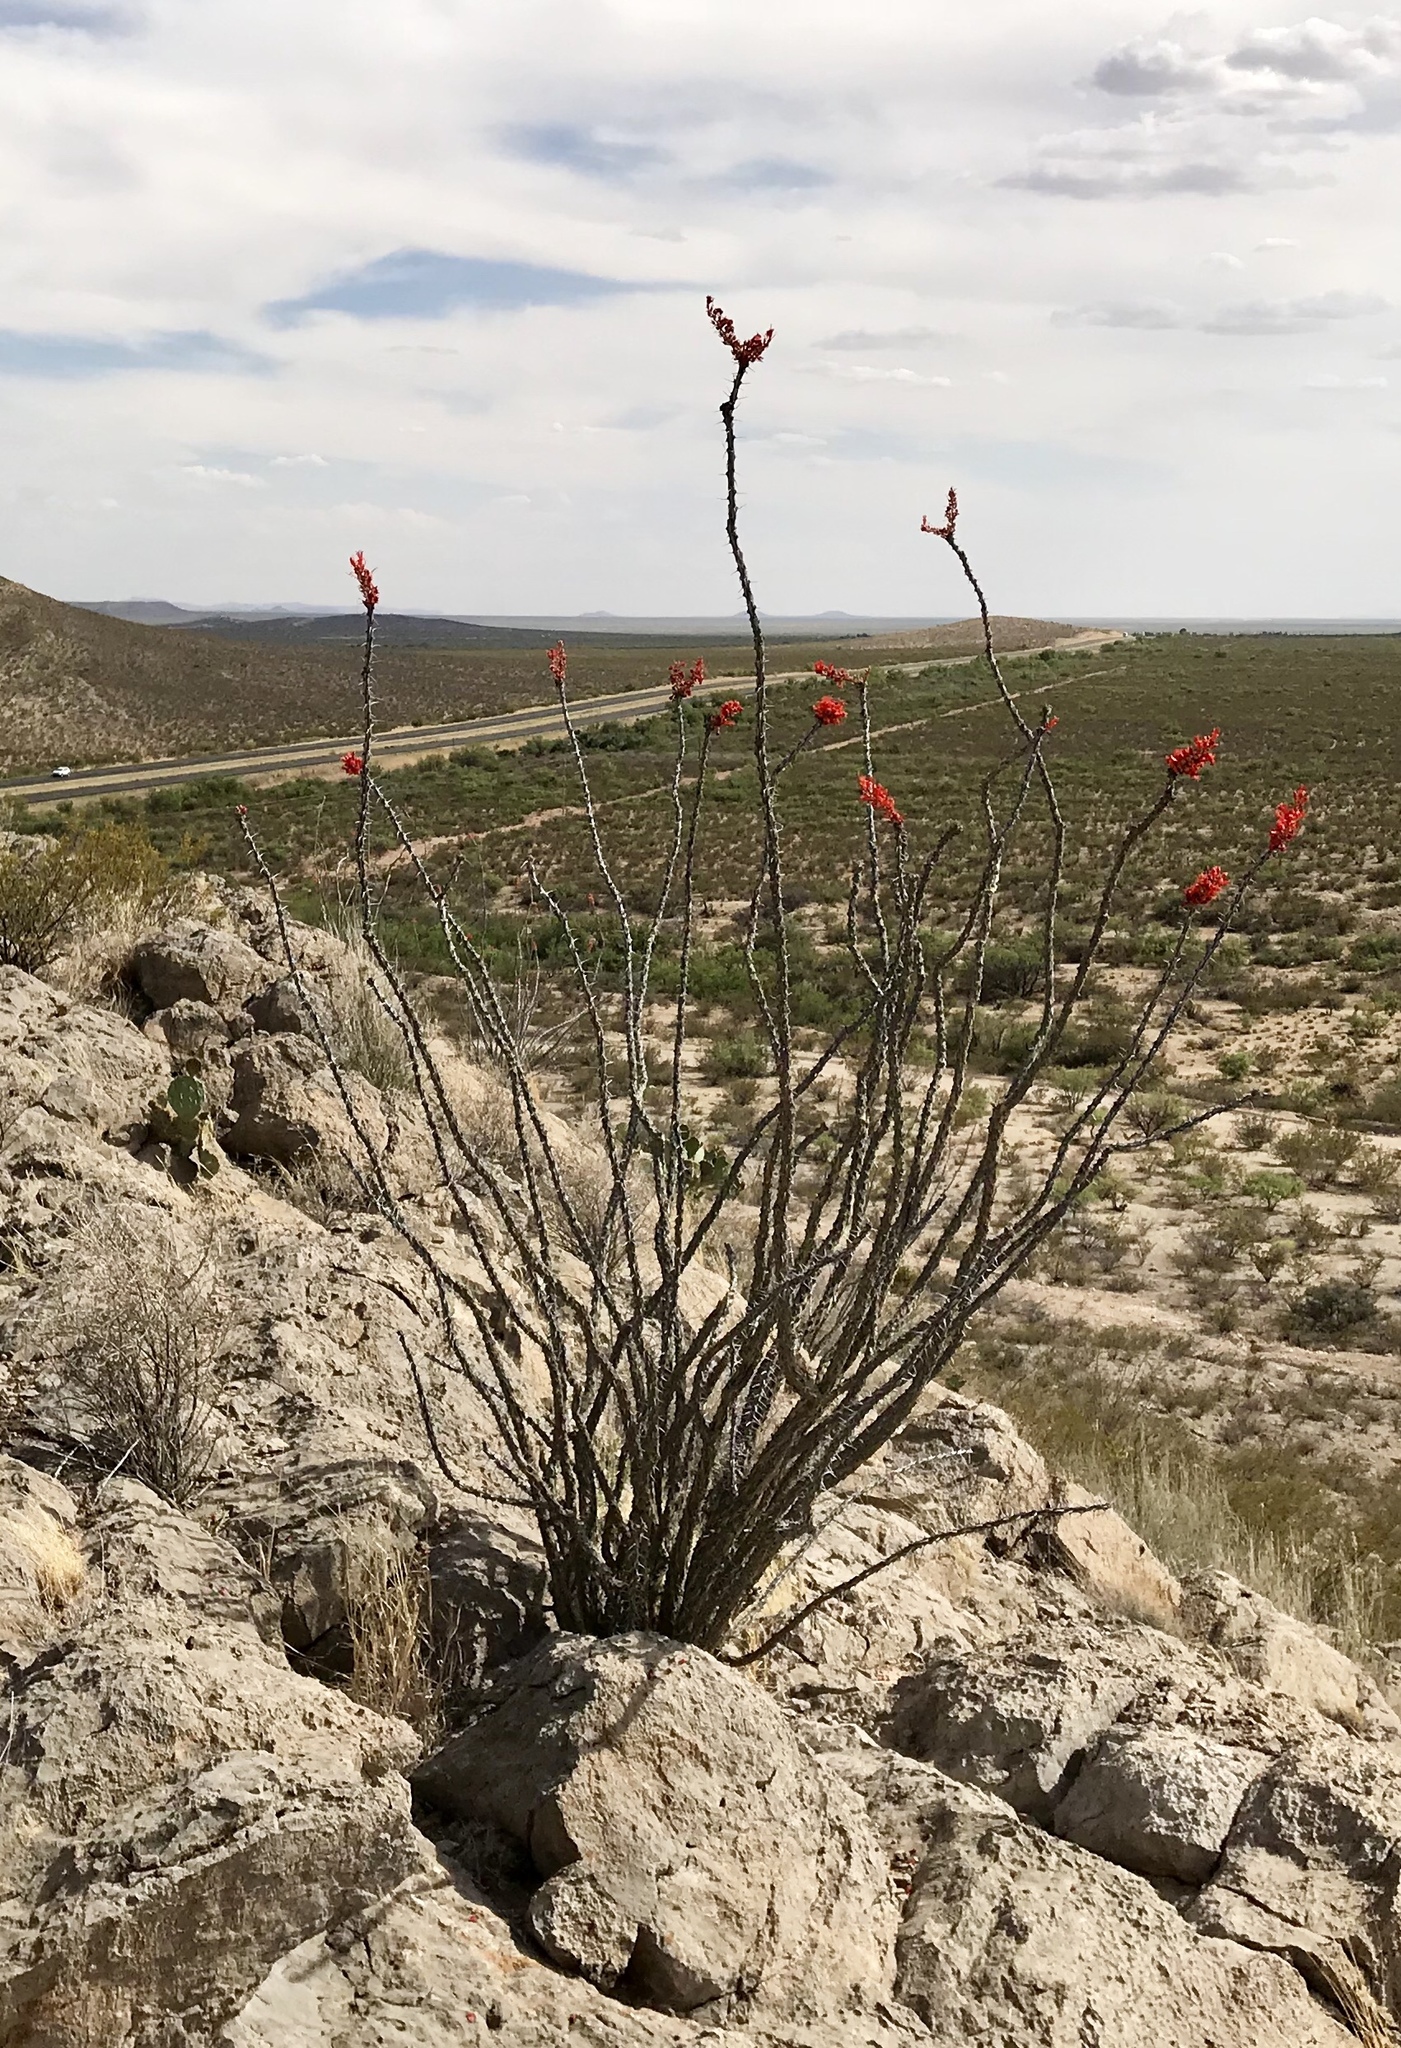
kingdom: Plantae
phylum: Tracheophyta
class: Magnoliopsida
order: Ericales
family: Fouquieriaceae
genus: Fouquieria
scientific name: Fouquieria splendens
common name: Vine-cactus
